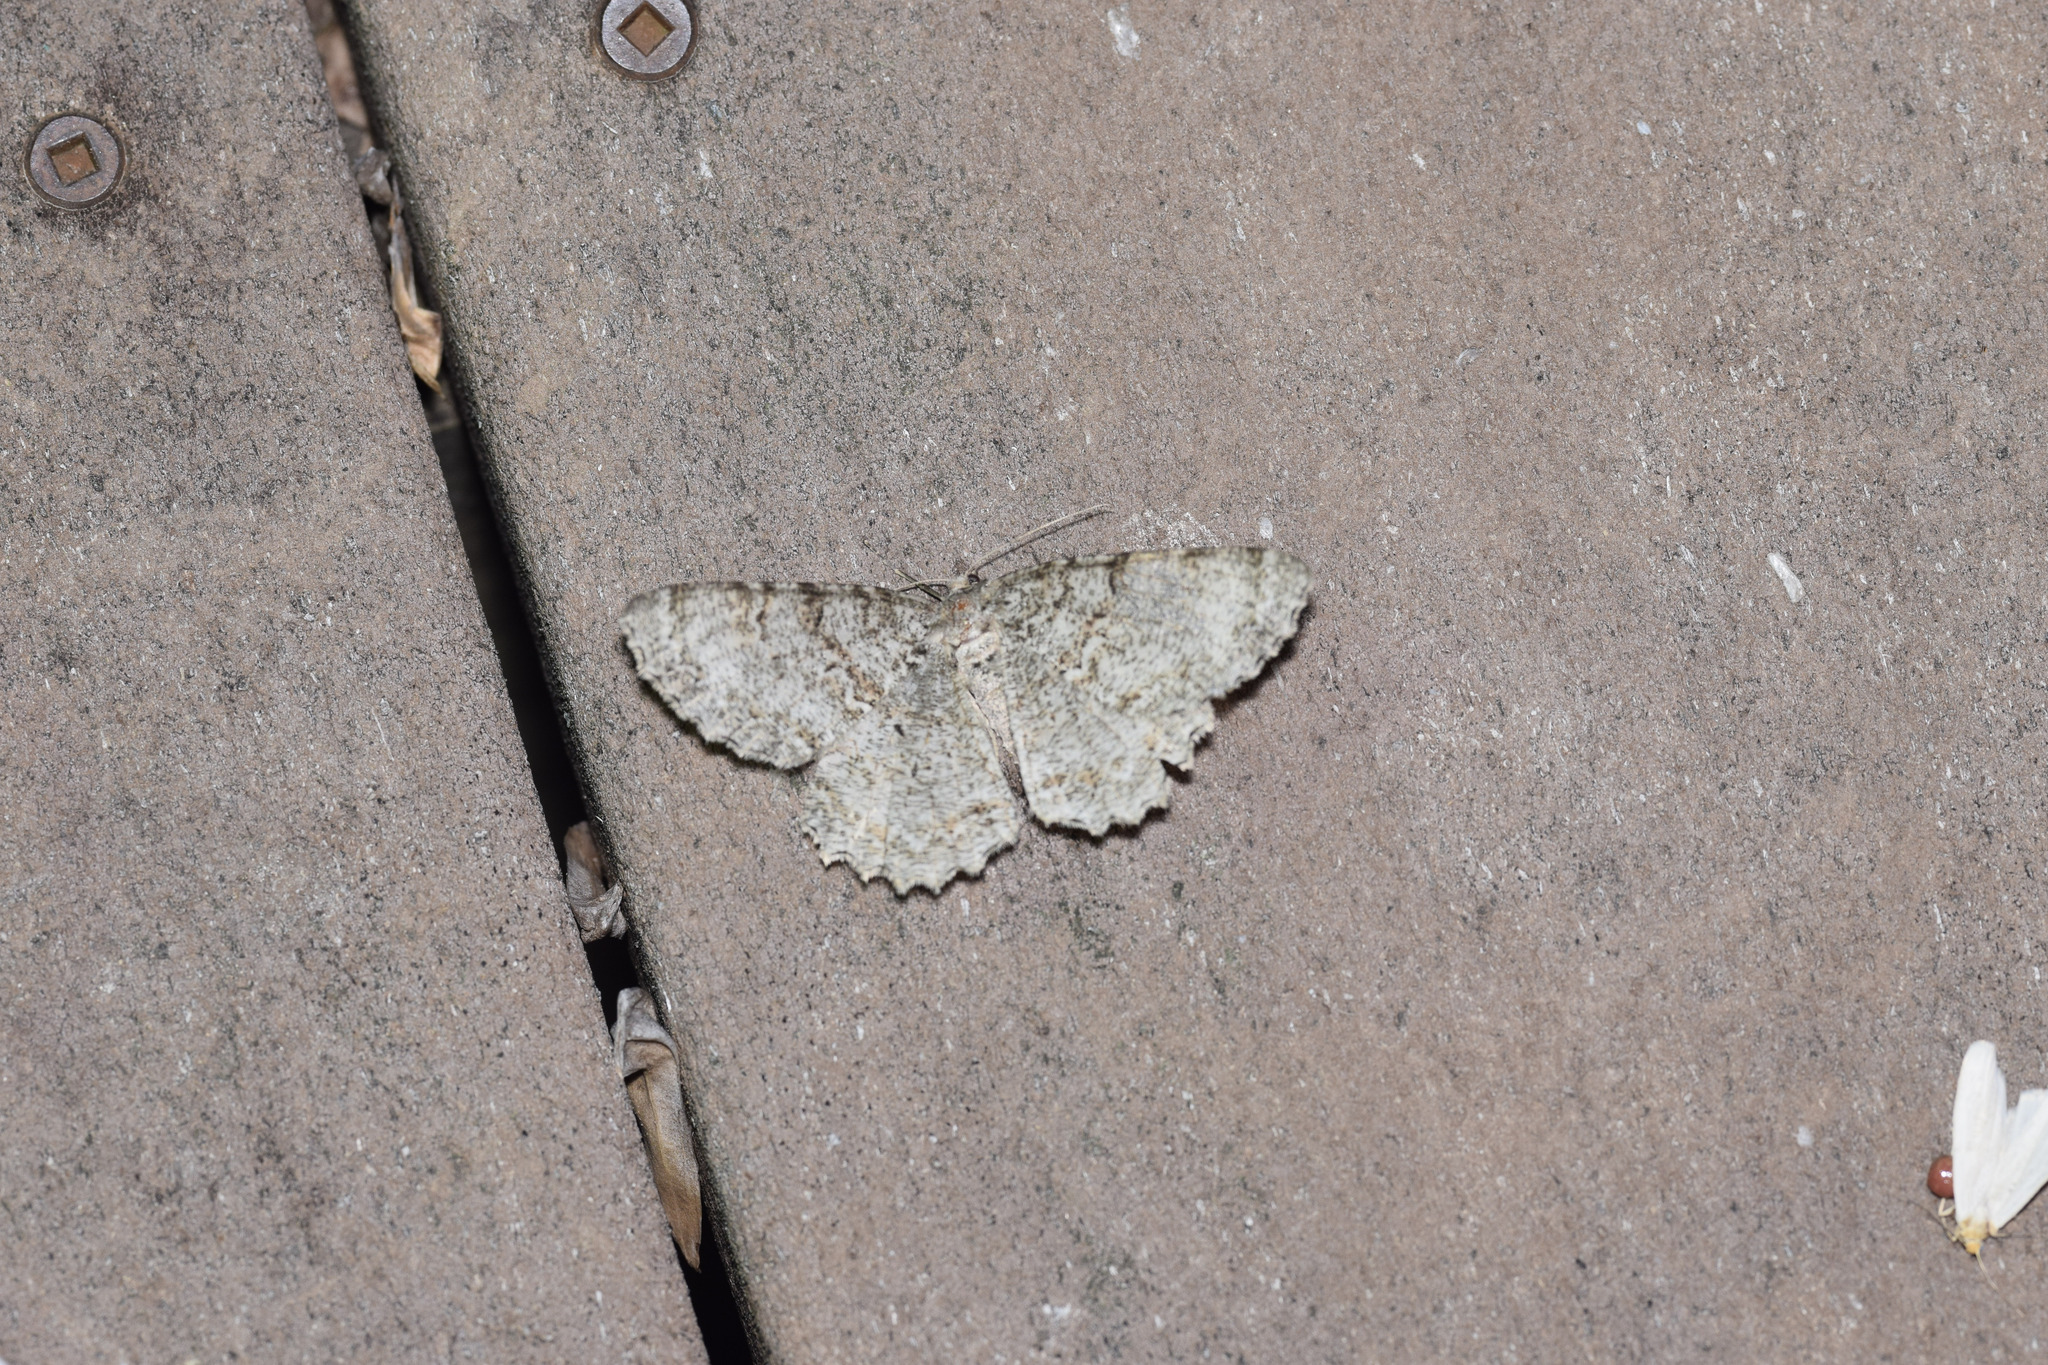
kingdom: Animalia
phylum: Arthropoda
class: Insecta
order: Lepidoptera
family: Geometridae
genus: Epimecis
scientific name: Epimecis hortaria
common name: Tulip-tree beauty
